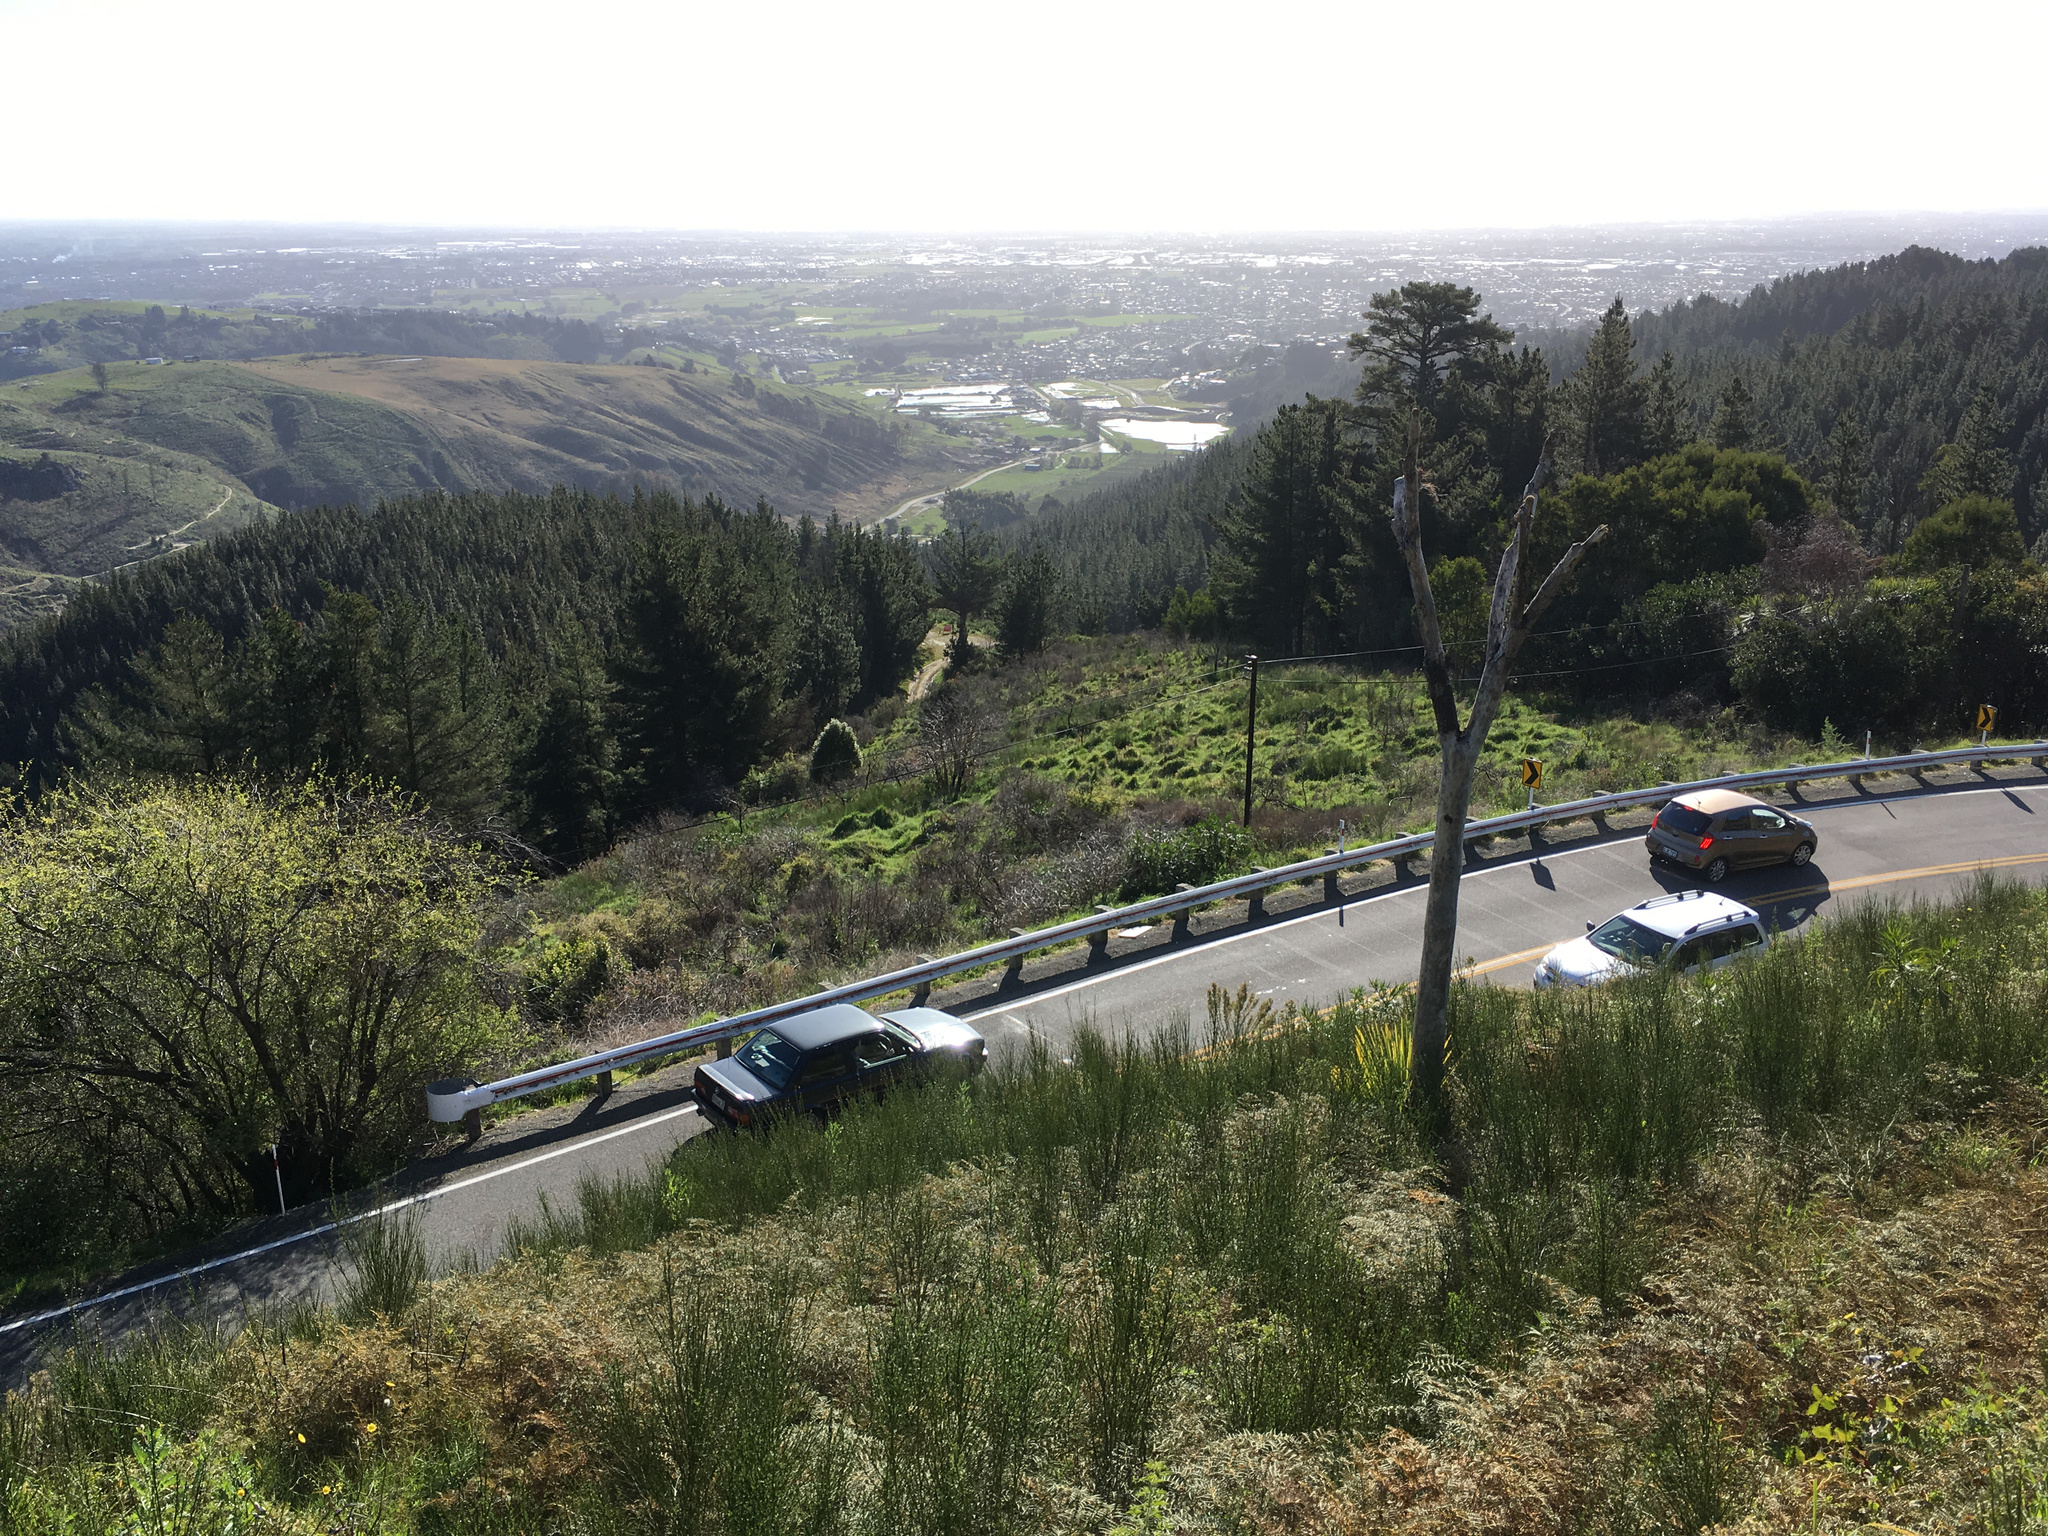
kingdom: Plantae
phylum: Tracheophyta
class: Liliopsida
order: Asparagales
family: Asparagaceae
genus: Cordyline
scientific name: Cordyline australis
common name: Cabbage-palm
